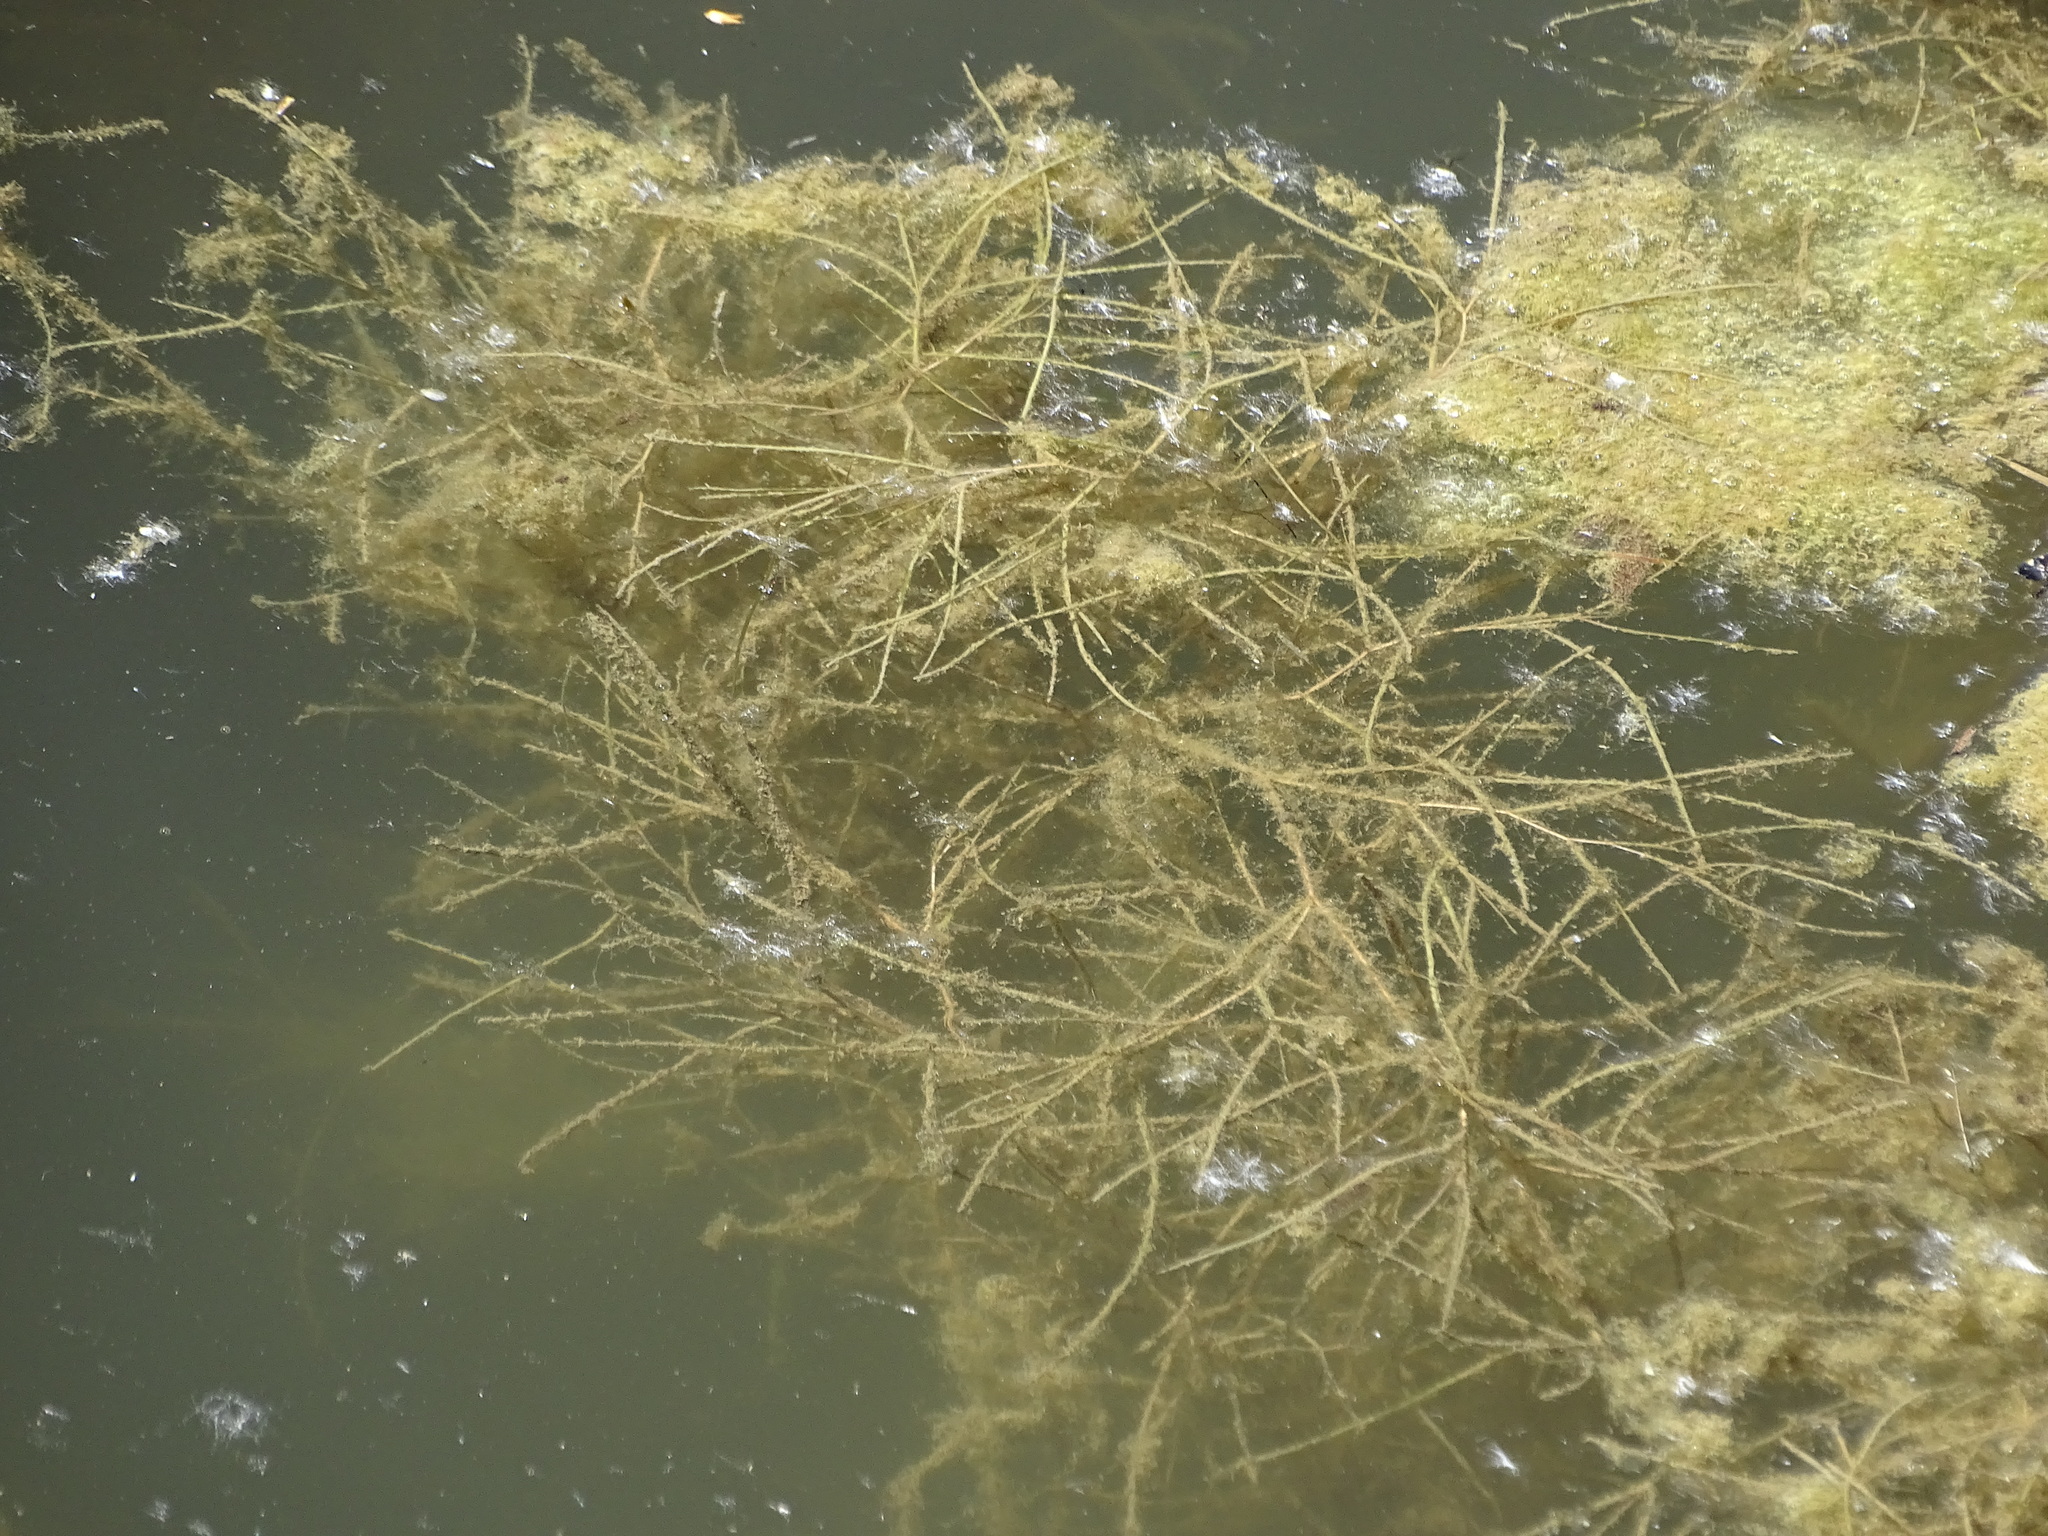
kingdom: Plantae
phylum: Tracheophyta
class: Liliopsida
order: Alismatales
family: Potamogetonaceae
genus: Stuckenia
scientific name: Stuckenia pectinata
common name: Sago pondweed
